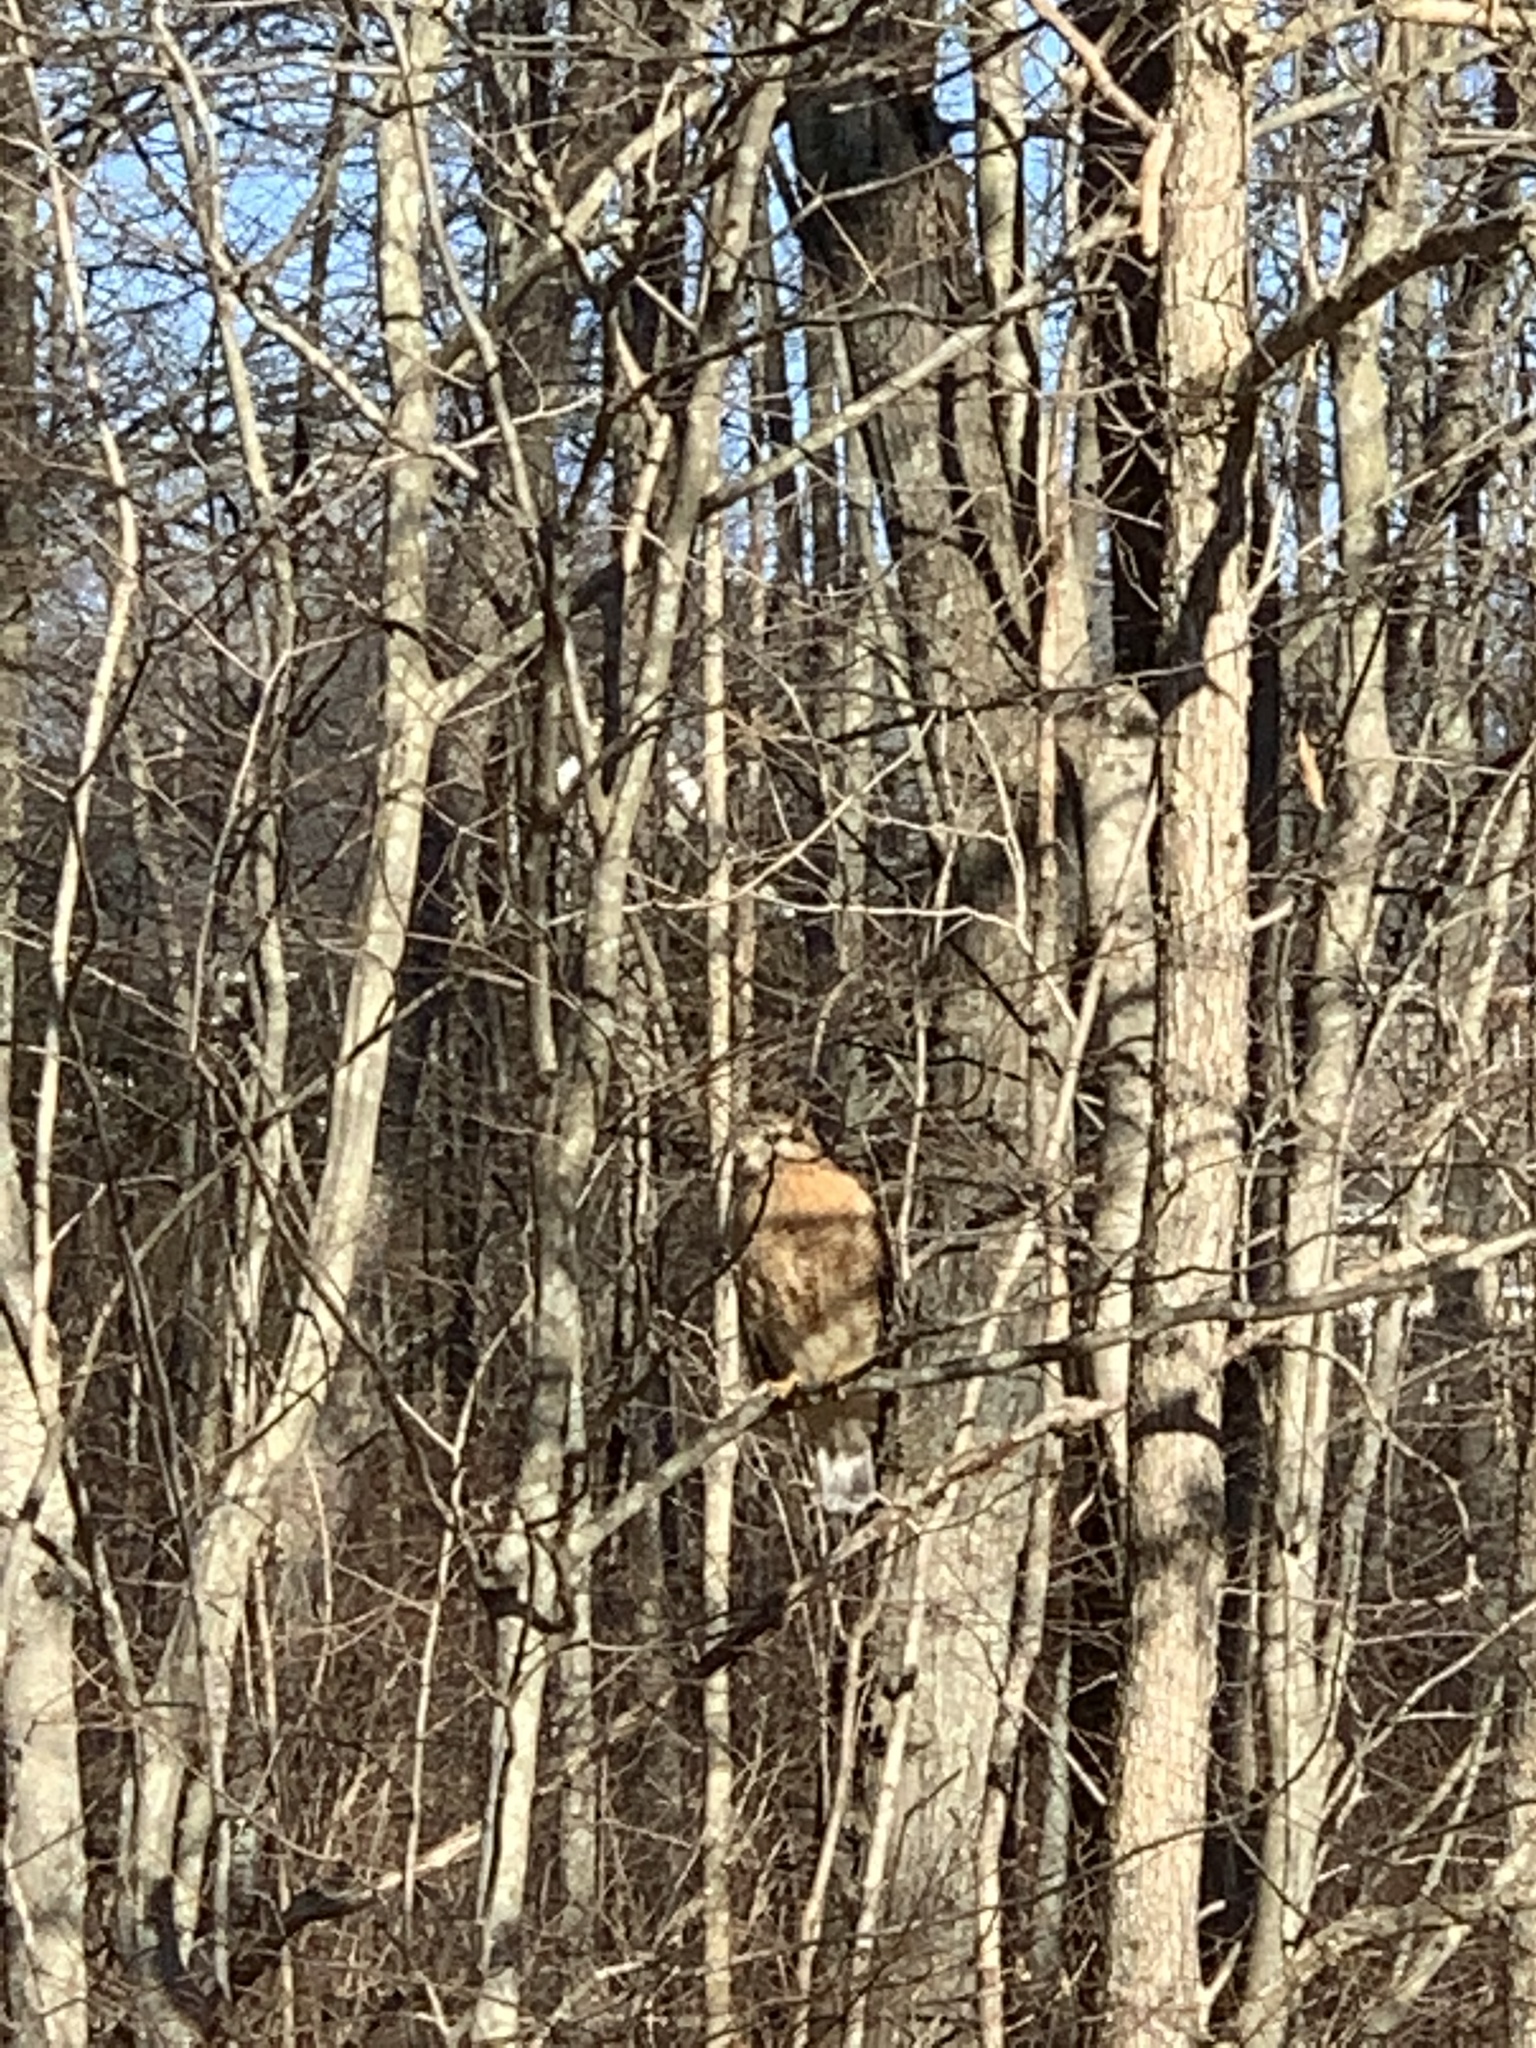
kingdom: Animalia
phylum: Chordata
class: Aves
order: Accipitriformes
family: Accipitridae
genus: Buteo
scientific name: Buteo lineatus
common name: Red-shouldered hawk
